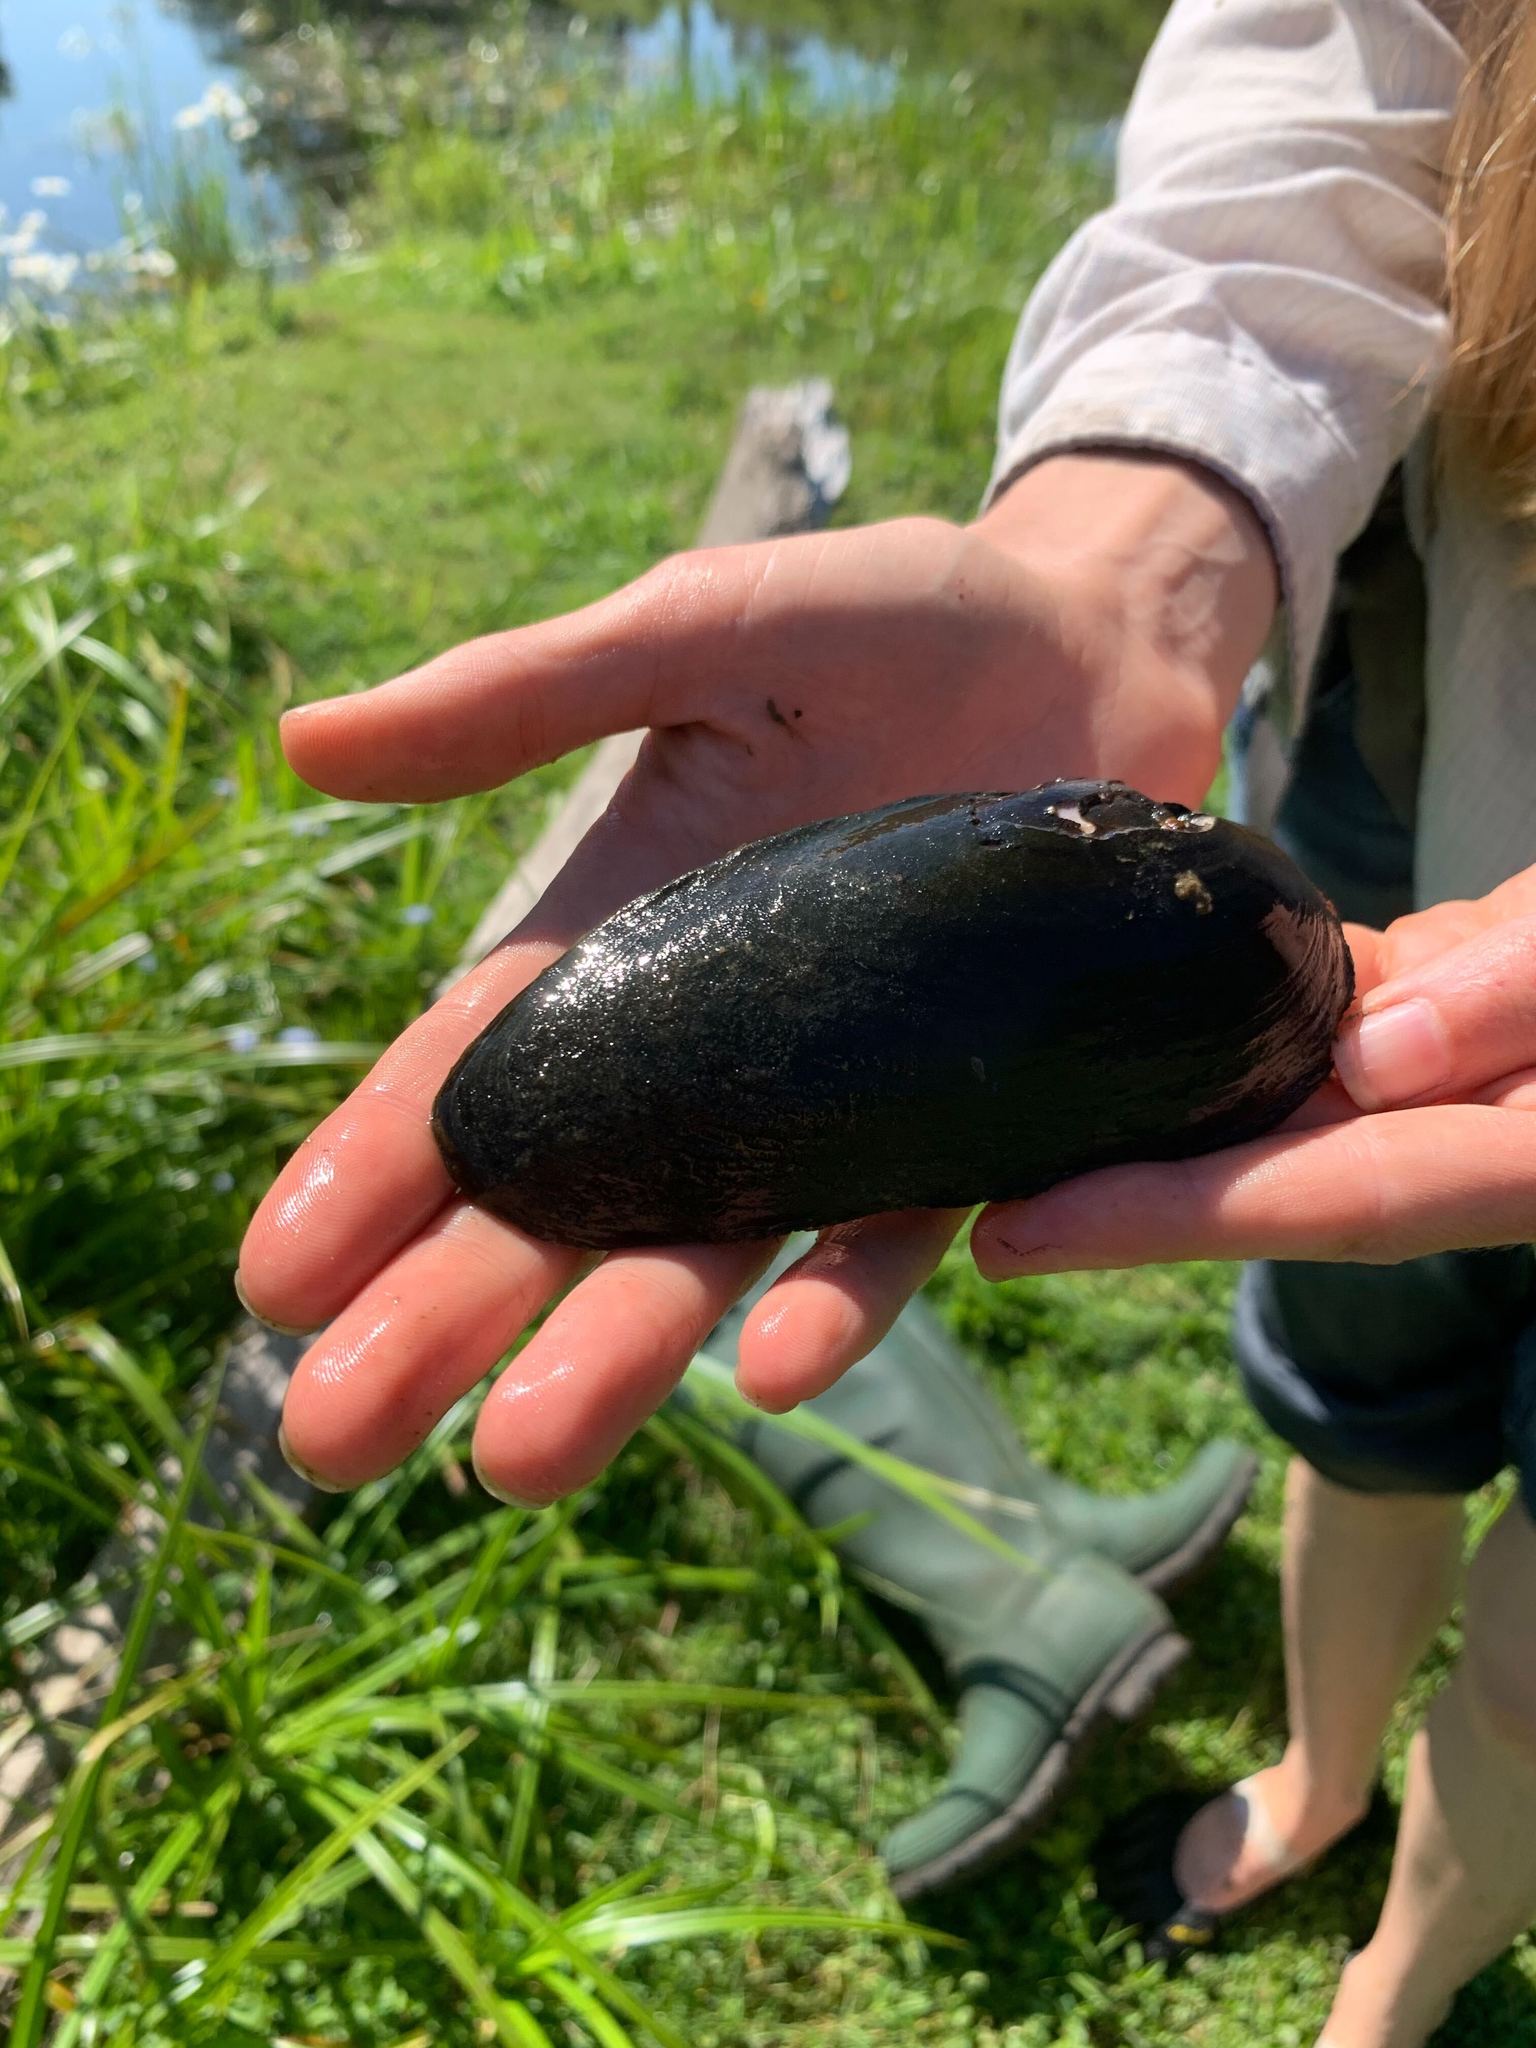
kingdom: Animalia
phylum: Mollusca
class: Bivalvia
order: Unionida
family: Margaritiferidae
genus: Margaritifera
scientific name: Margaritifera falcata
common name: Western pearlshell
